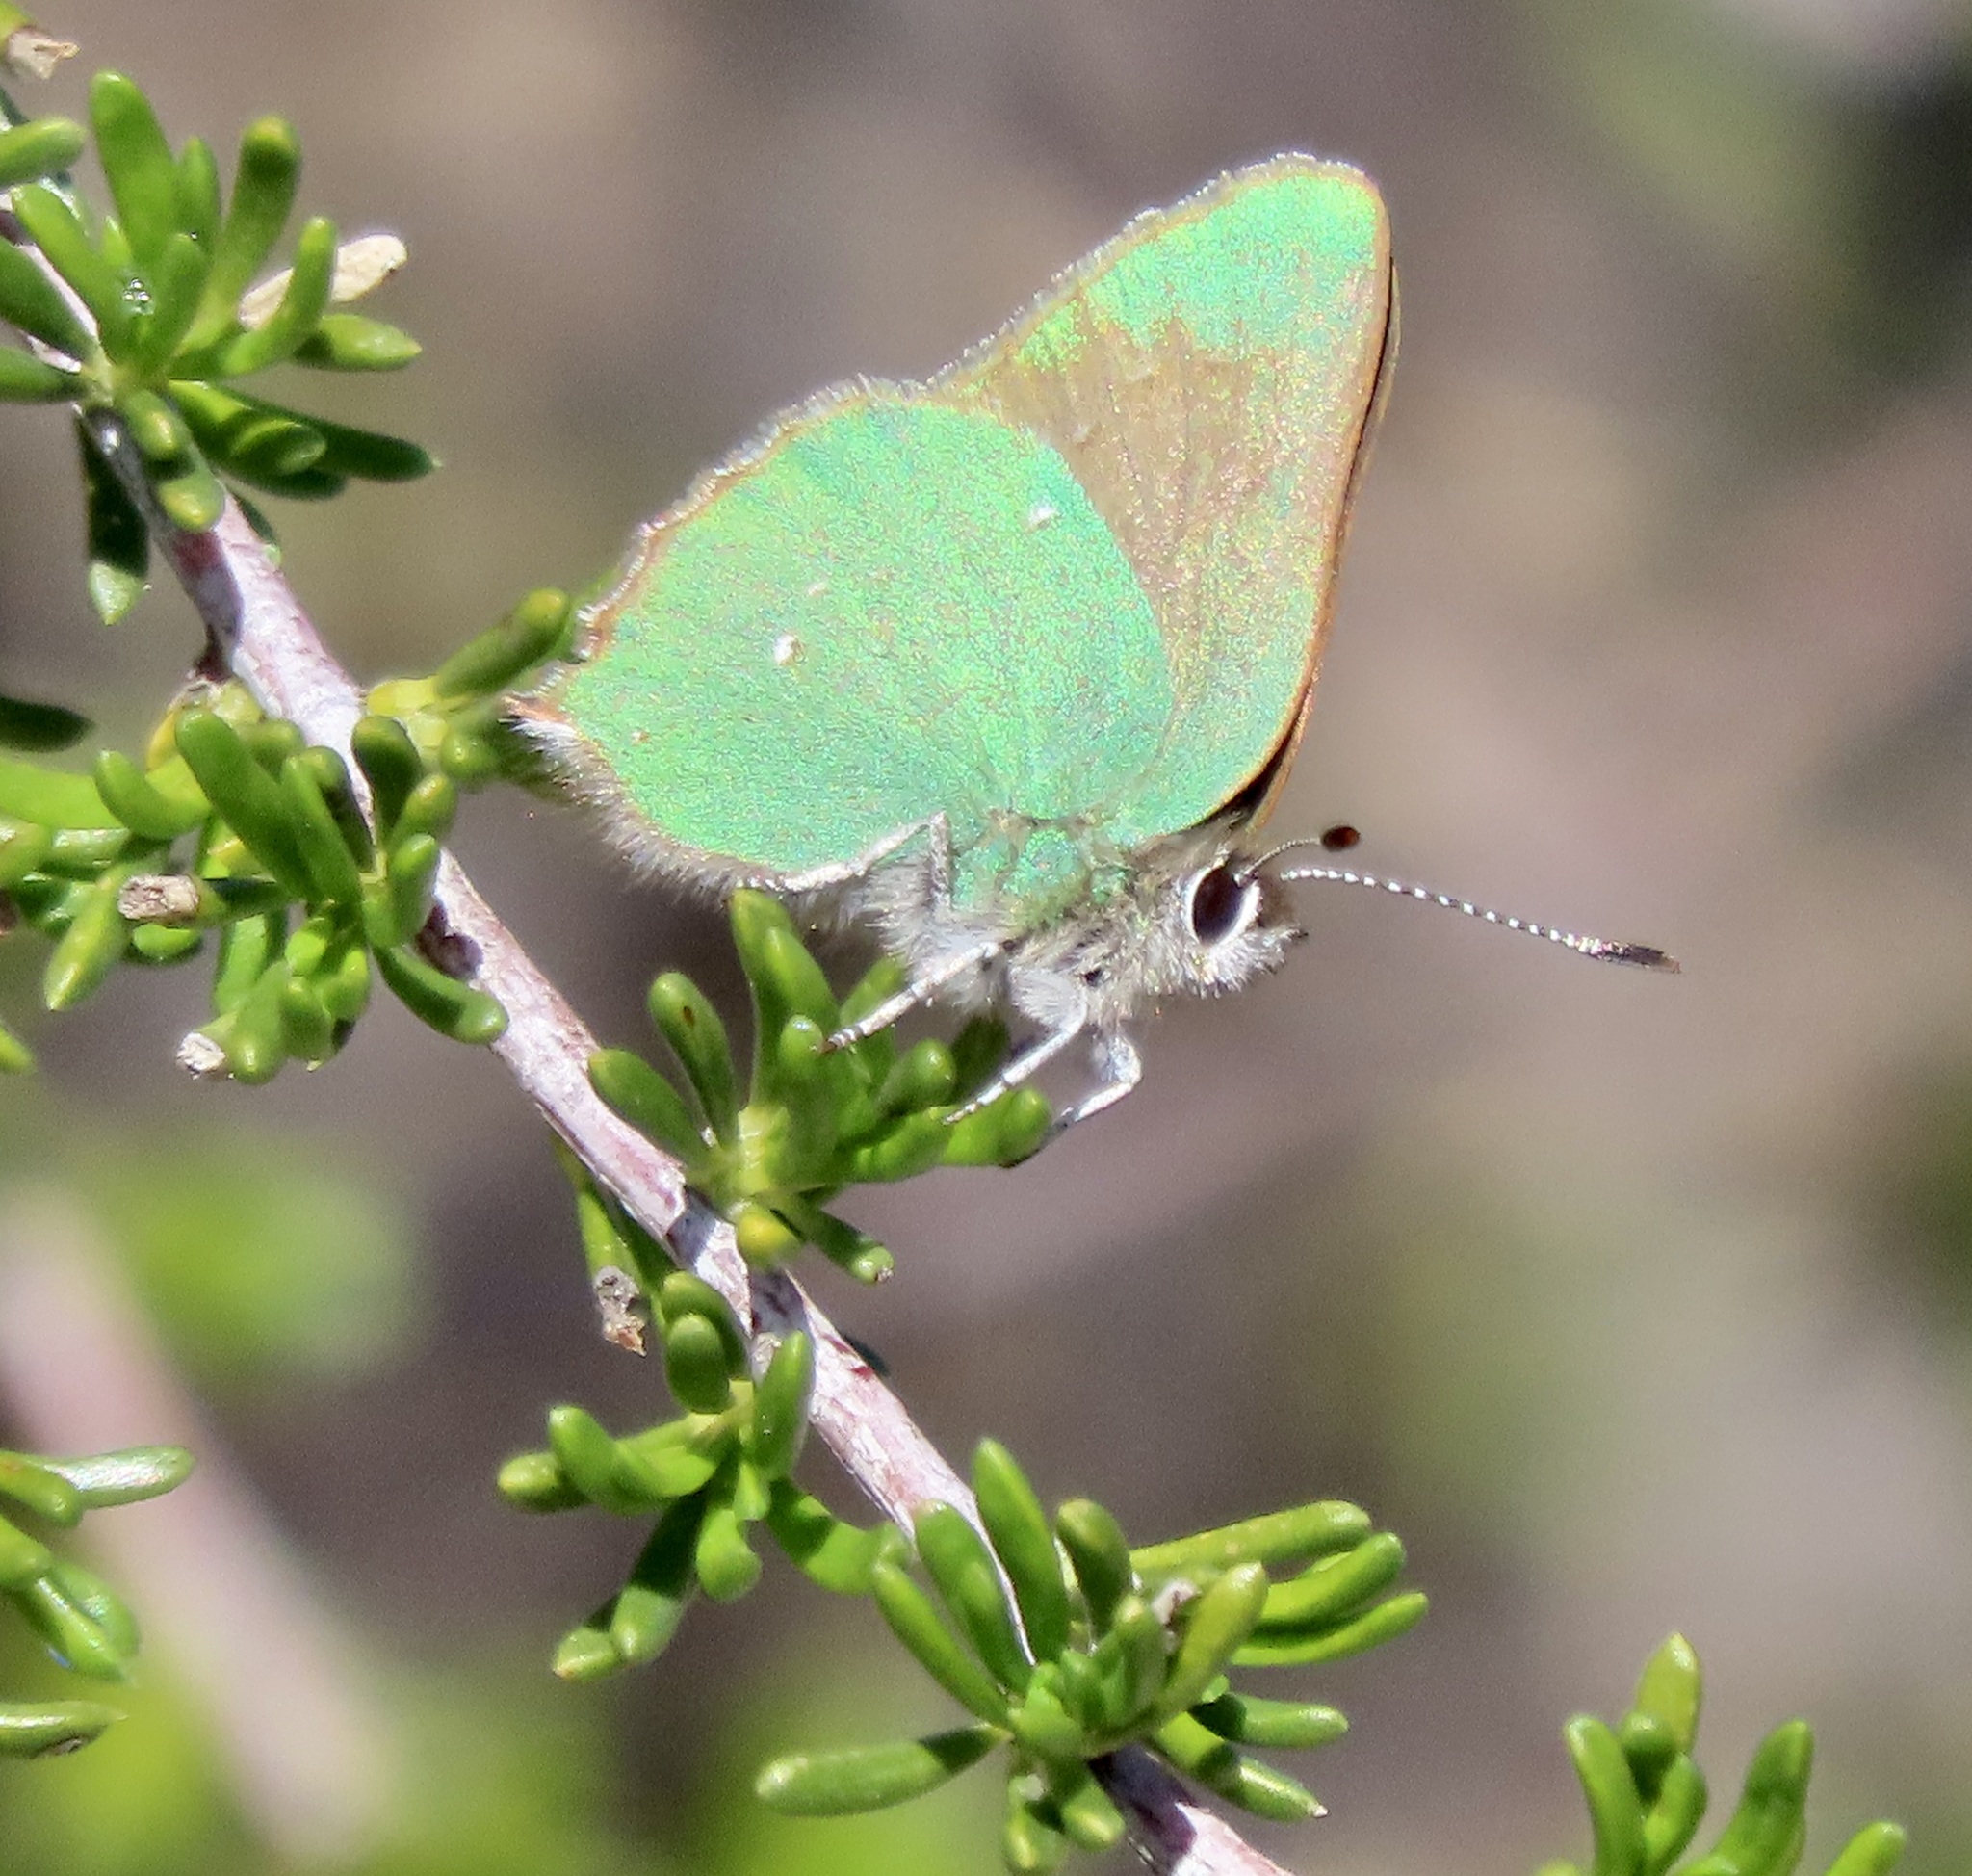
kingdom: Animalia
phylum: Arthropoda
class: Insecta
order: Lepidoptera
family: Lycaenidae
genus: Callophrys
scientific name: Callophrys dumetorum
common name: Bramble hairstreak
